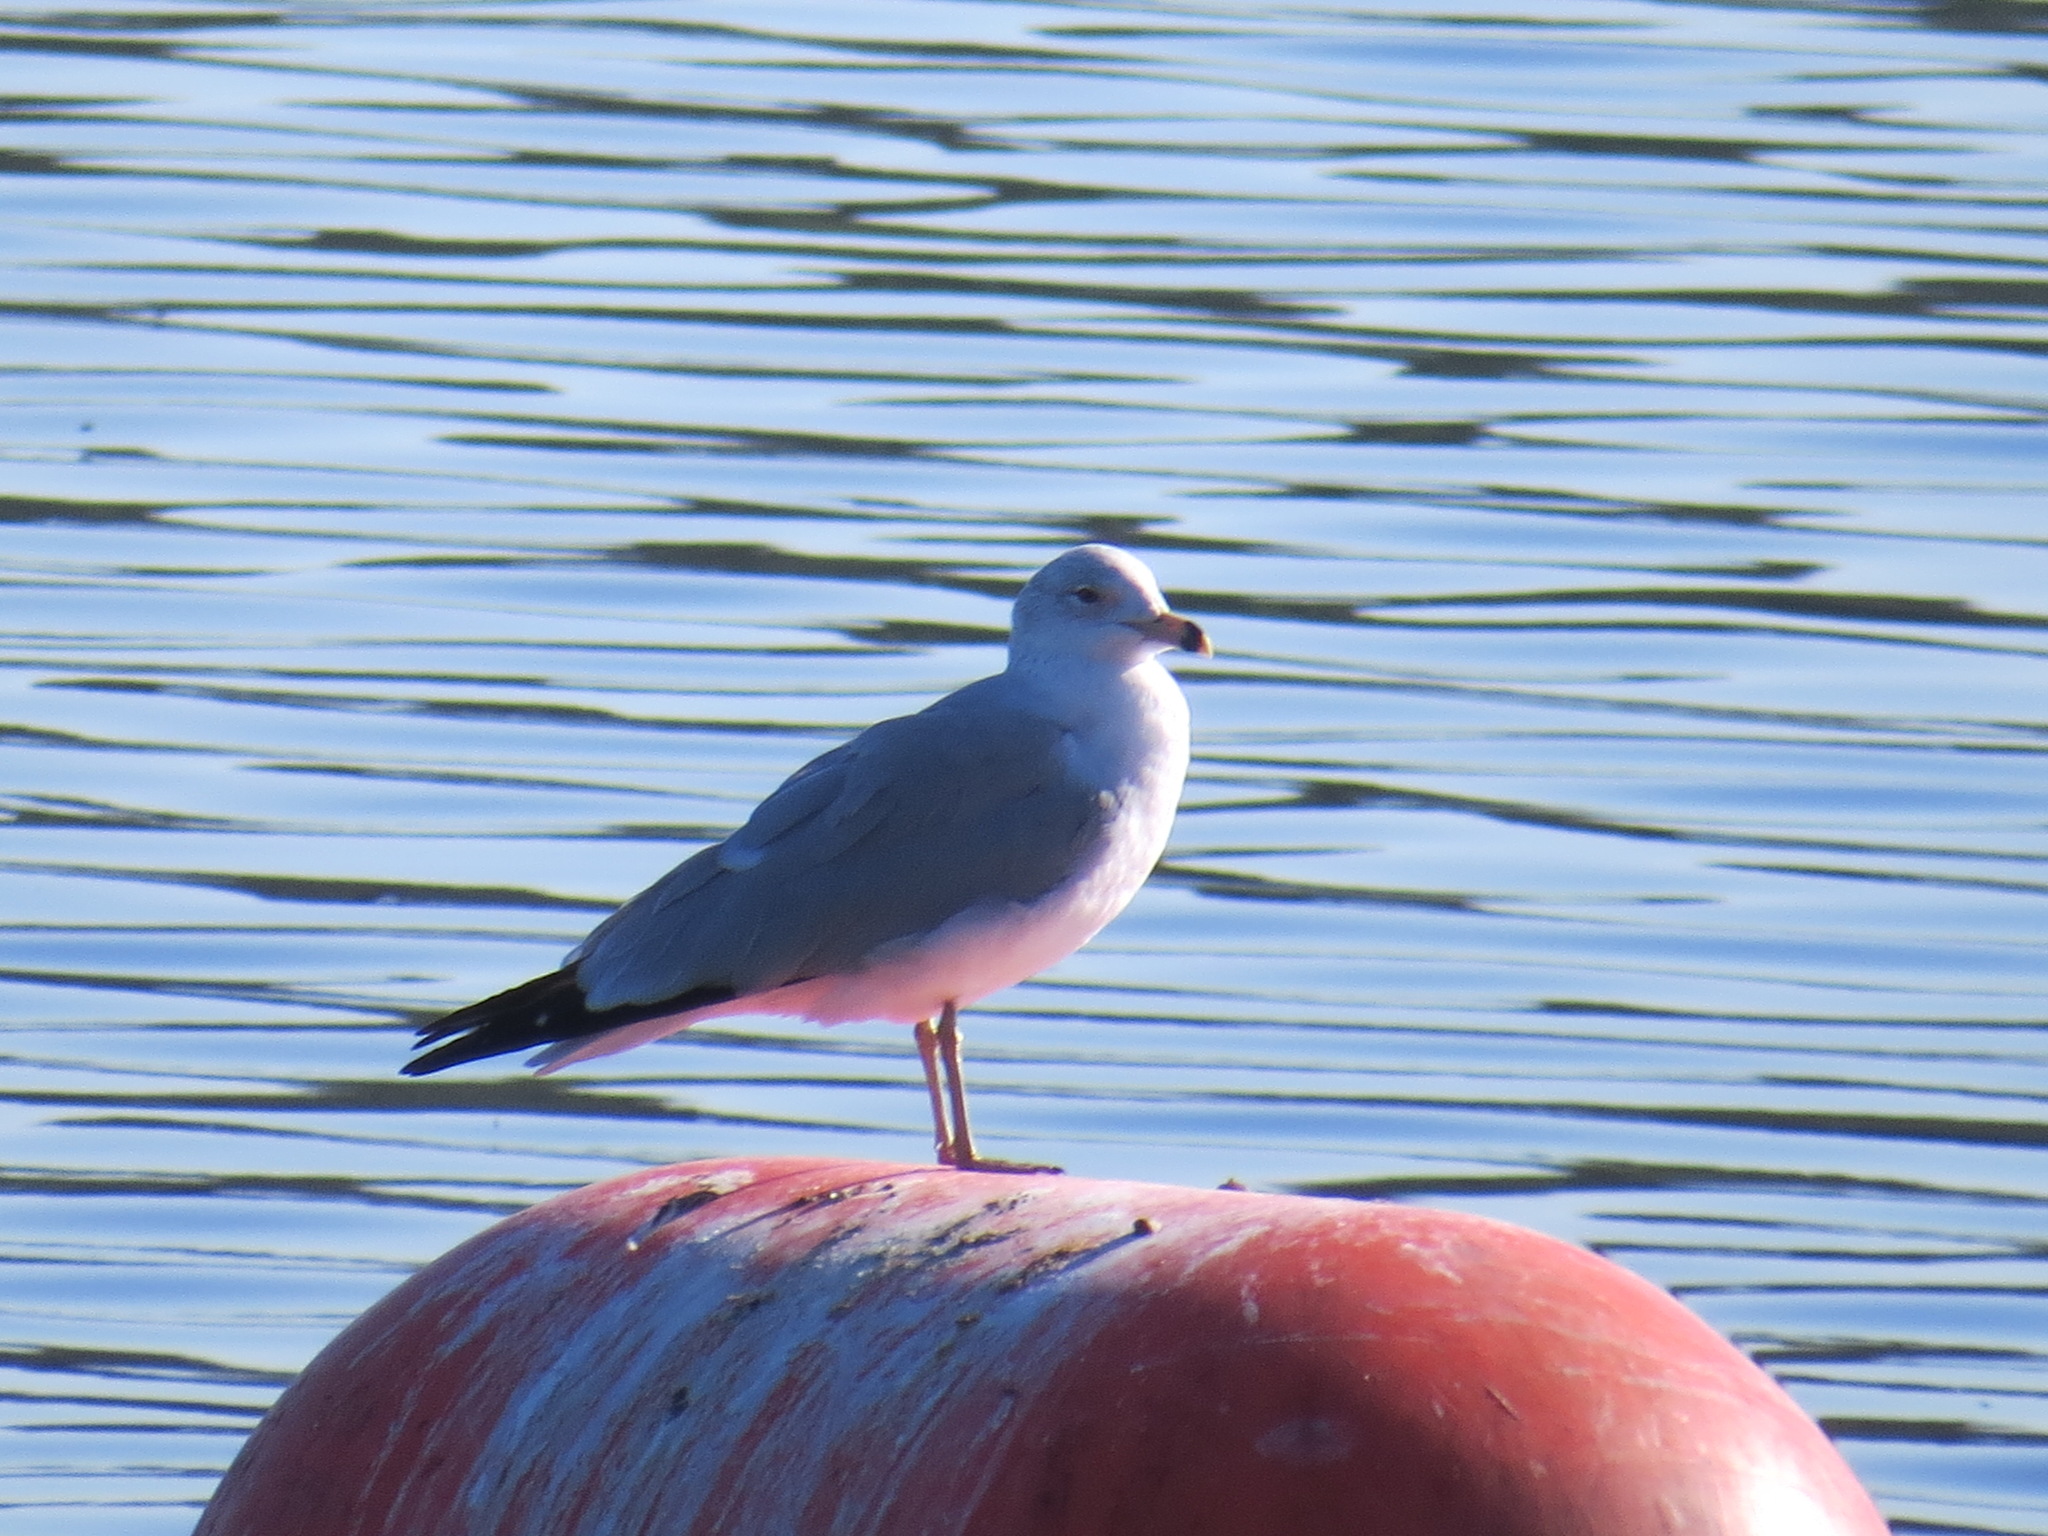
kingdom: Animalia
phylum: Chordata
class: Aves
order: Charadriiformes
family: Laridae
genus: Larus
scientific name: Larus delawarensis
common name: Ring-billed gull
